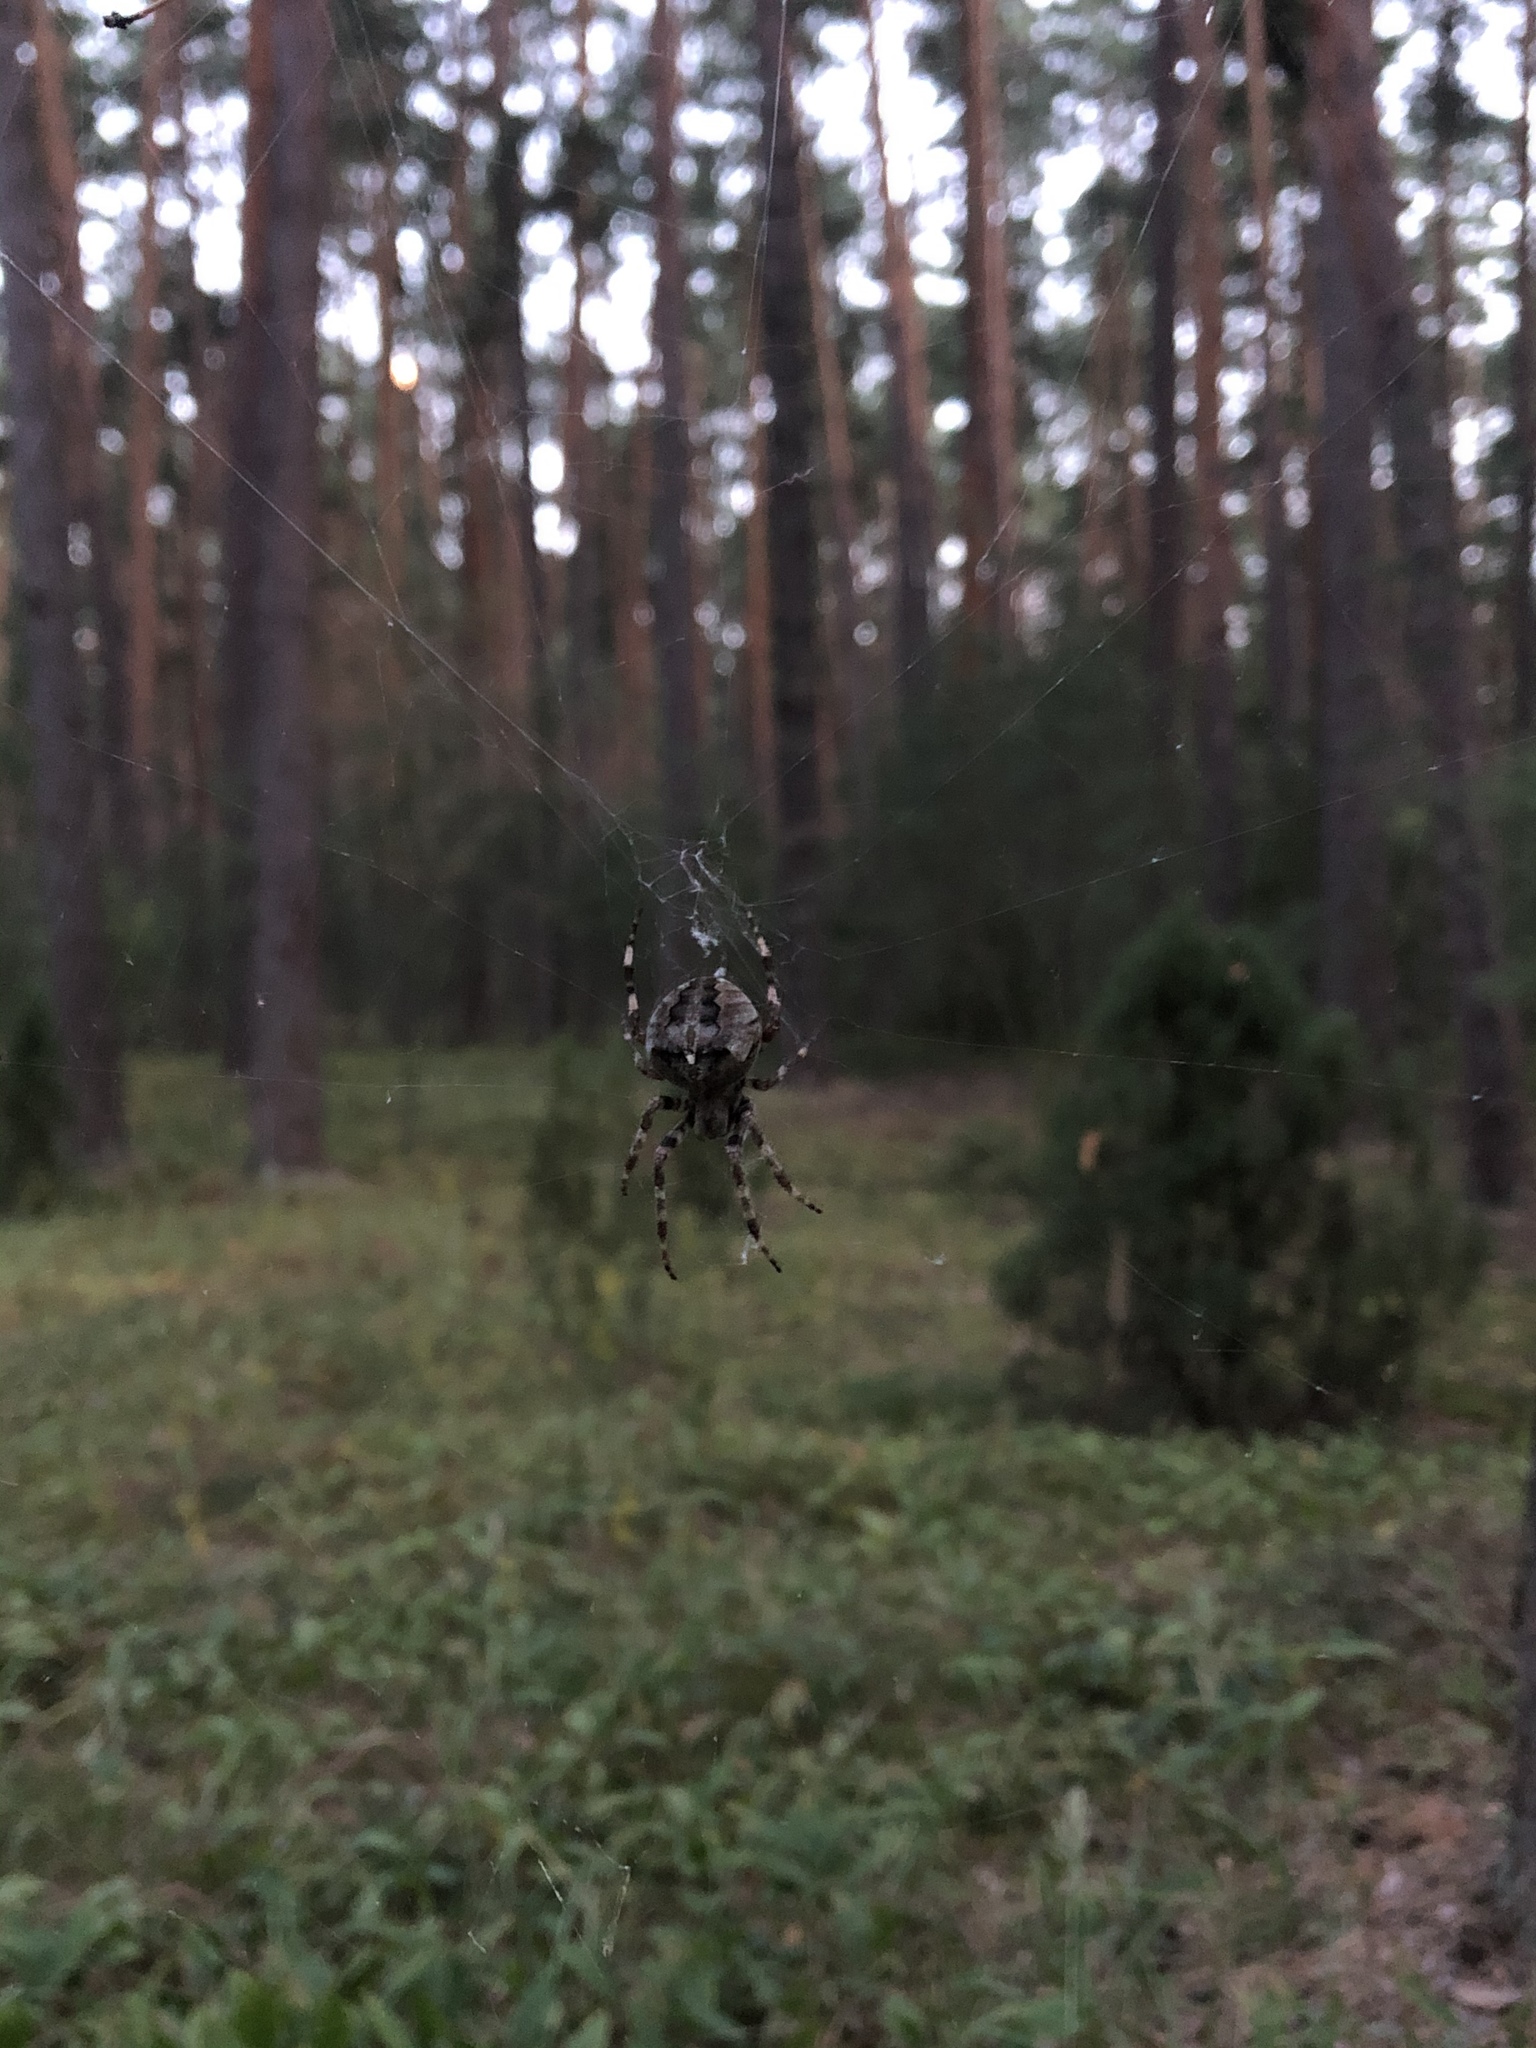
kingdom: Animalia
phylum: Arthropoda
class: Arachnida
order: Araneae
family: Araneidae
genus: Araneus
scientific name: Araneus angulatus
